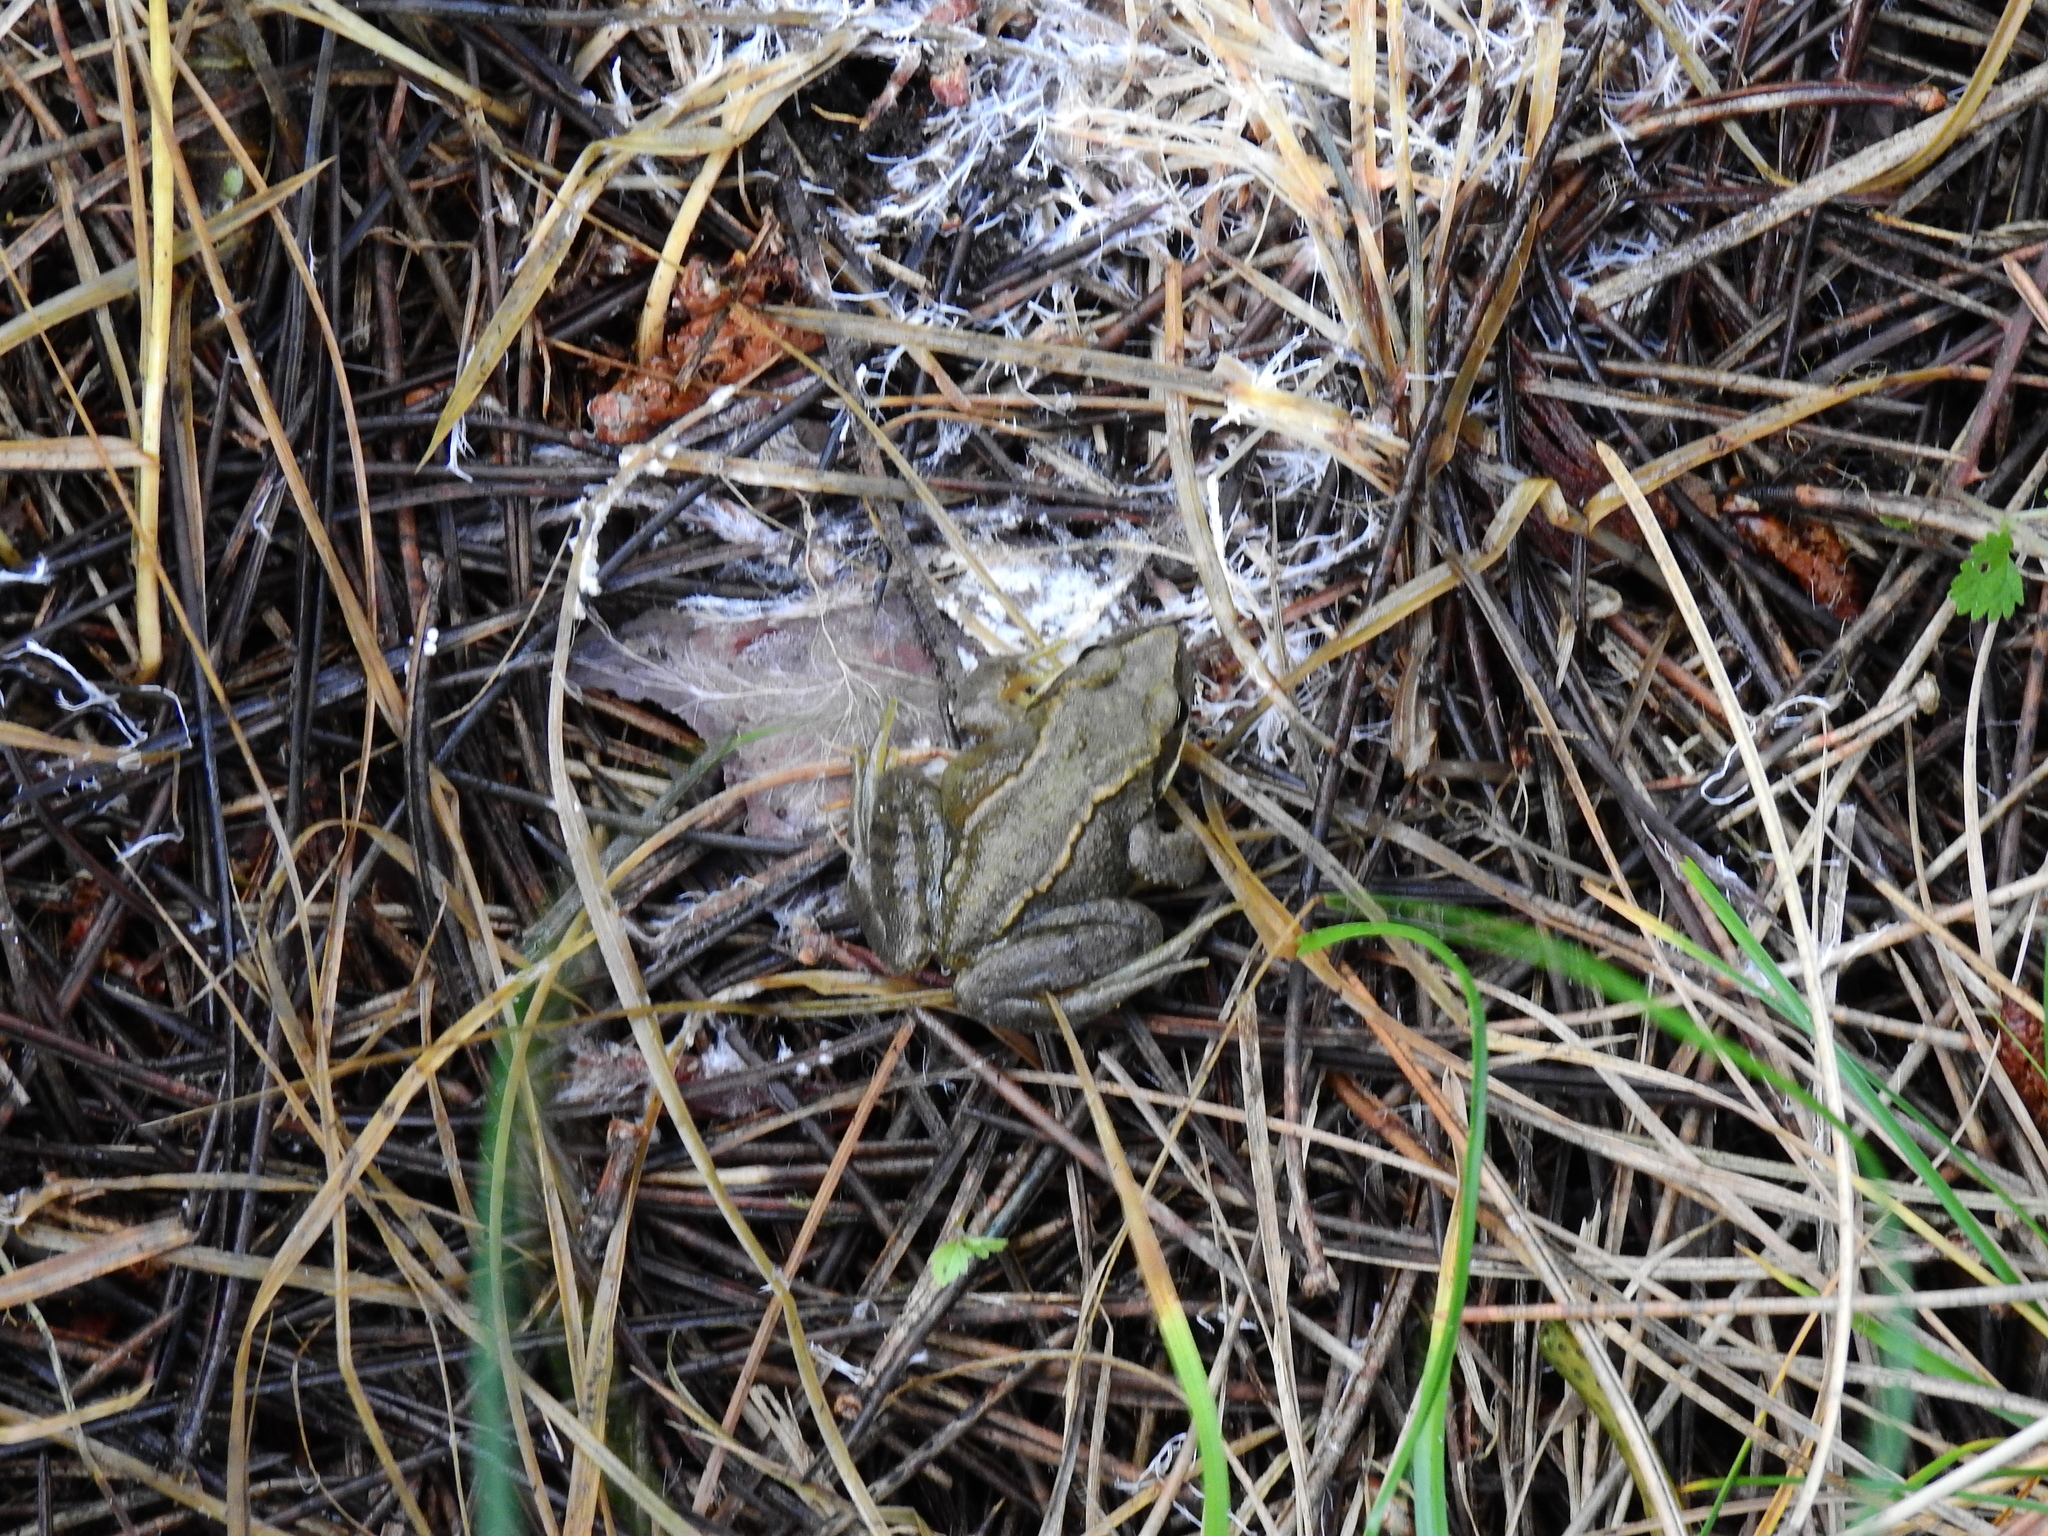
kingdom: Animalia
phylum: Chordata
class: Amphibia
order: Anura
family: Ranidae
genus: Rana
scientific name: Rana temporaria
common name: Common frog
